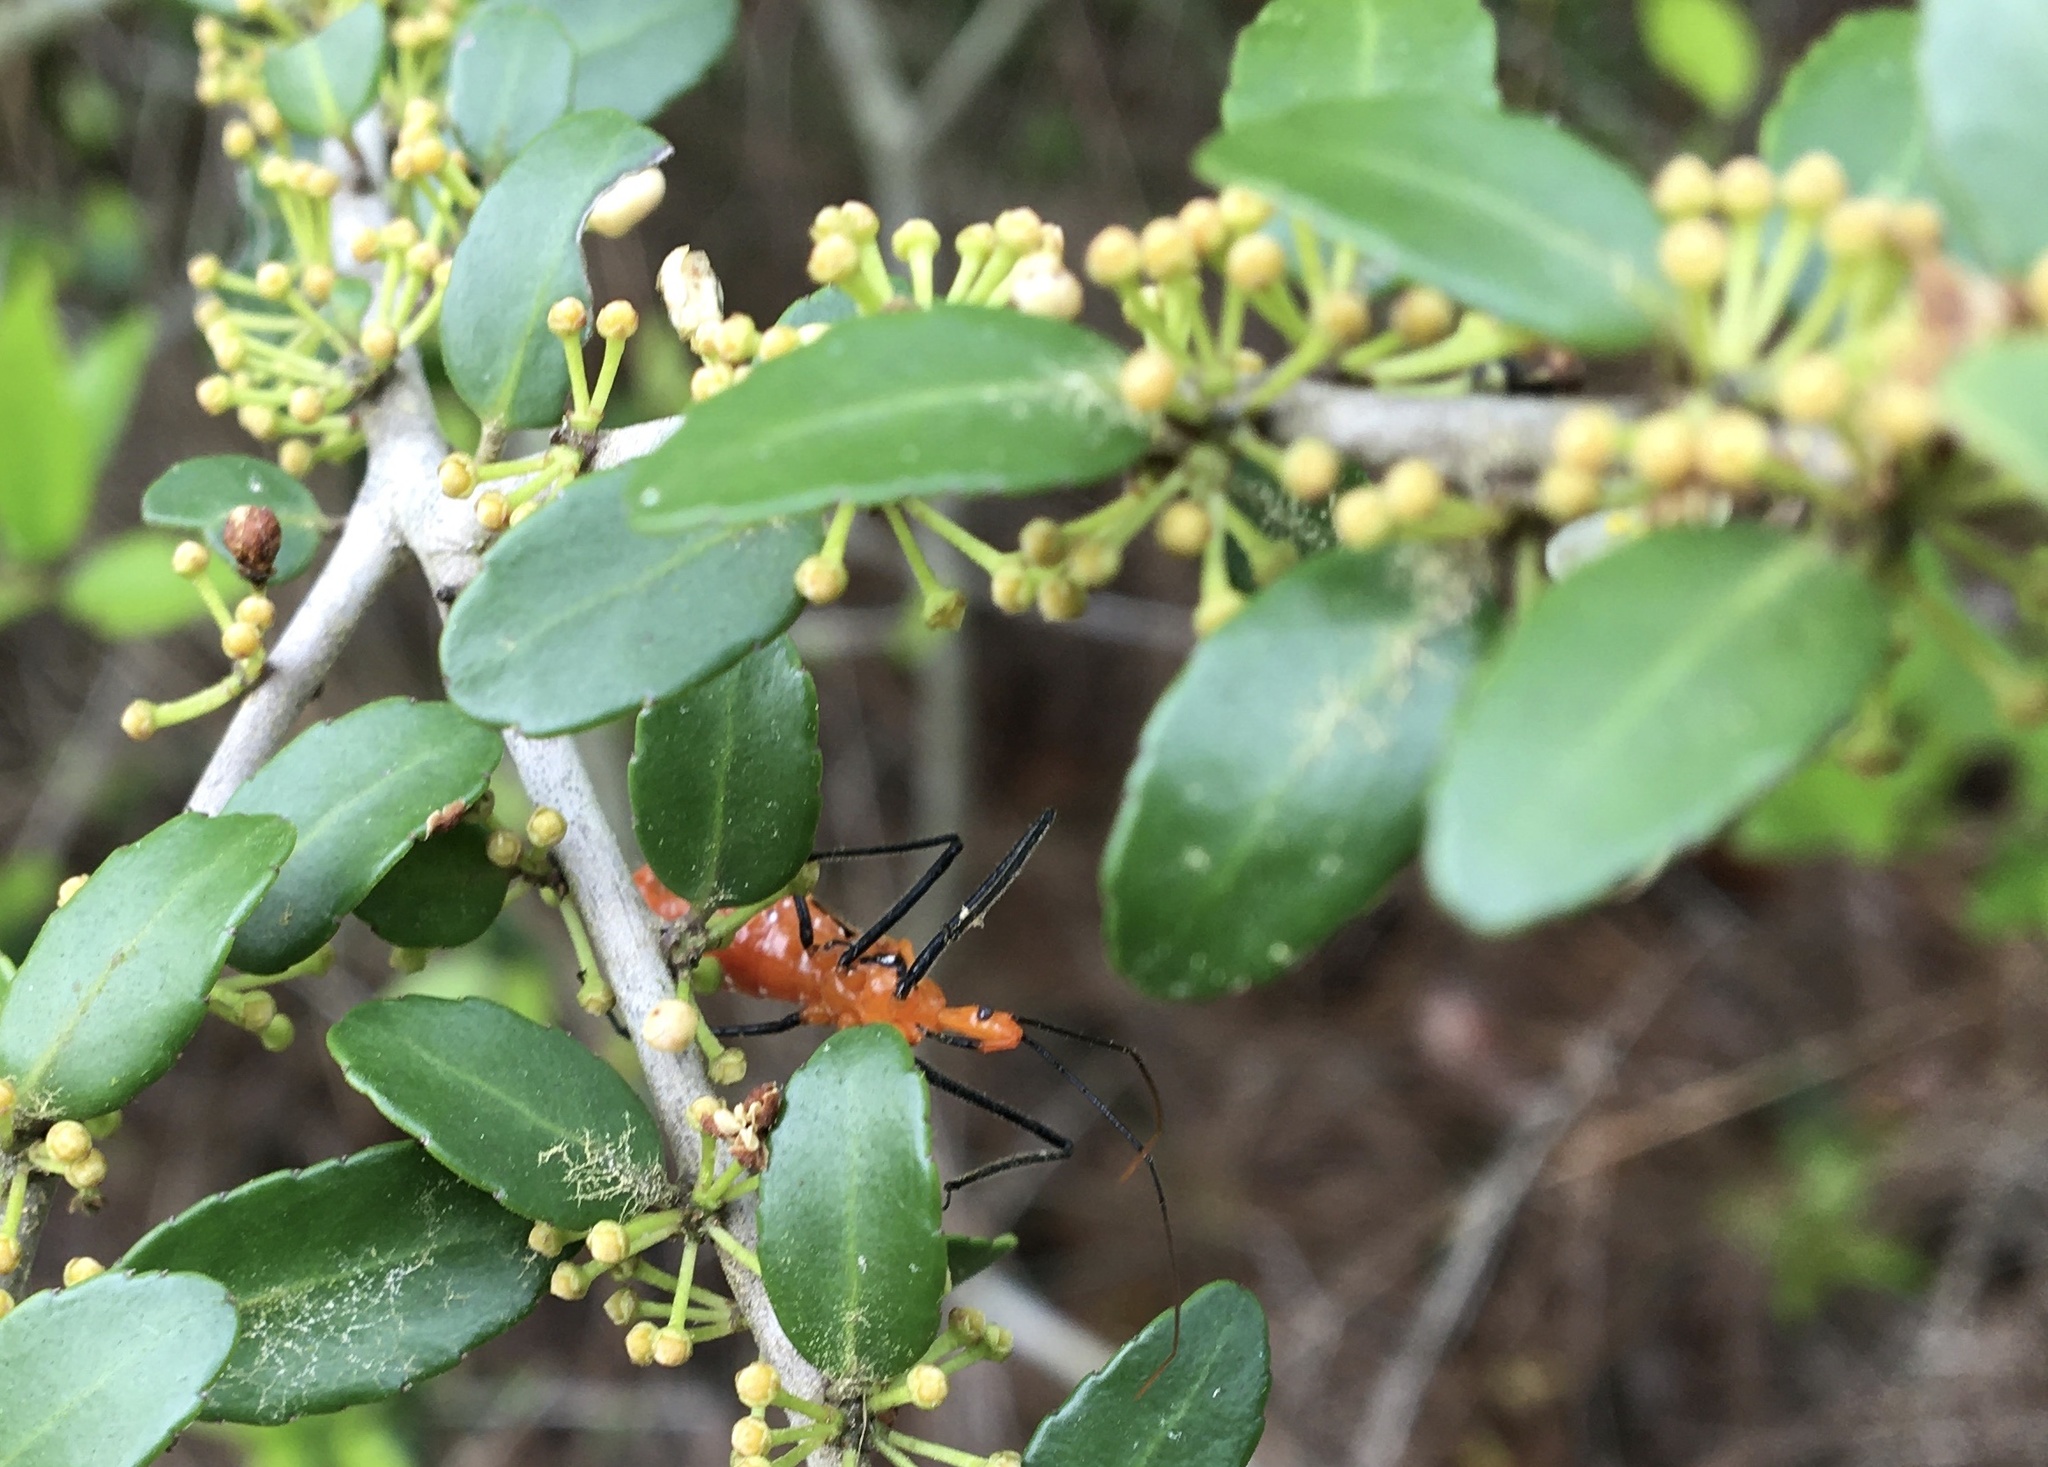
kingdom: Animalia
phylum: Arthropoda
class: Insecta
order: Hemiptera
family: Reduviidae
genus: Zelus
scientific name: Zelus longipes
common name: Milkweed assassin bug
